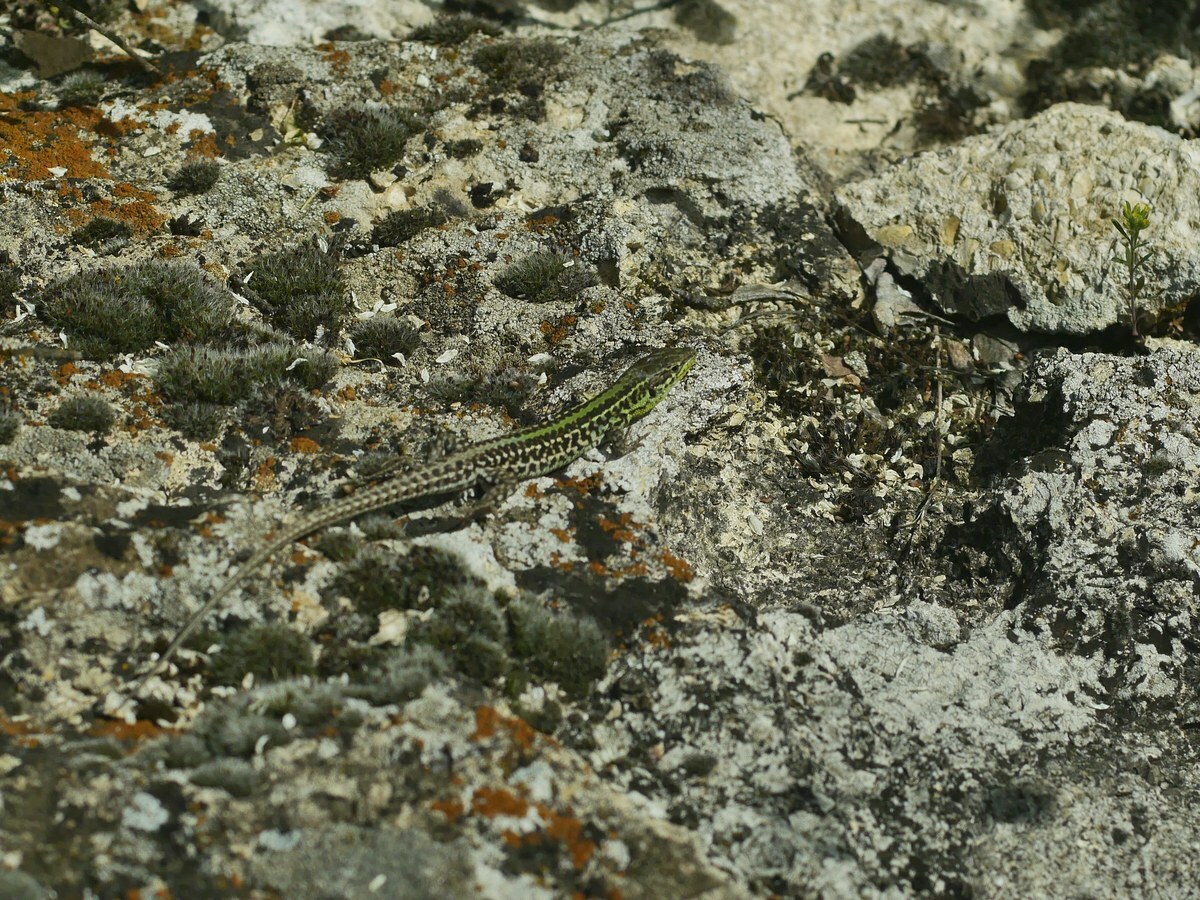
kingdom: Animalia
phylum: Chordata
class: Squamata
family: Lacertidae
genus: Podarcis
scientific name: Podarcis tauricus
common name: Balkan wall lizard
